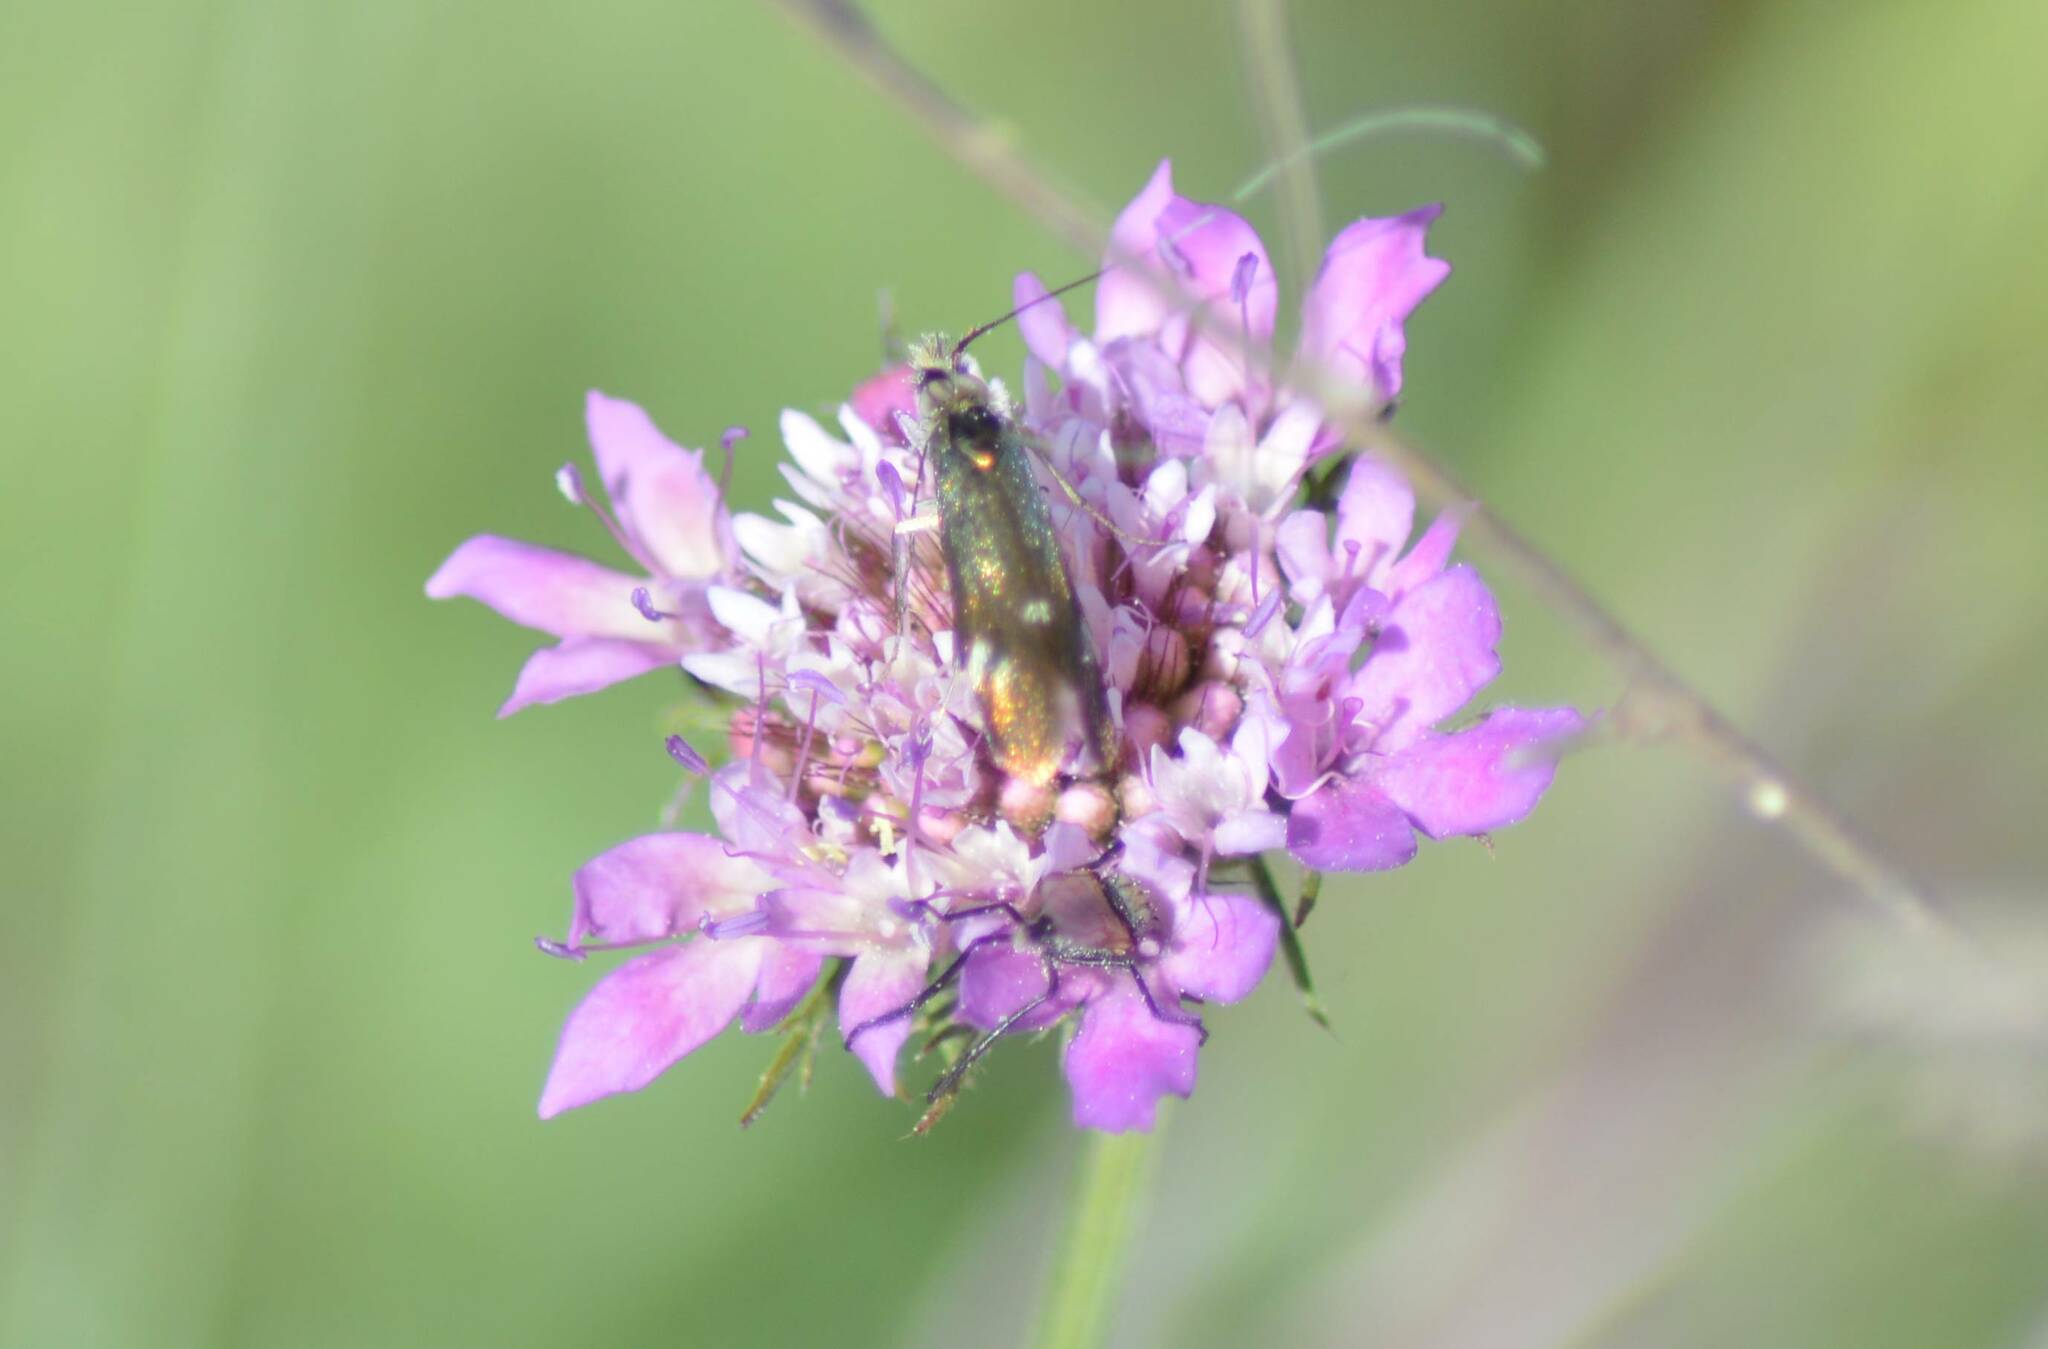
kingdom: Animalia
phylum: Arthropoda
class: Insecta
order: Lepidoptera
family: Adelidae
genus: Nemophora
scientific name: Nemophora raddaella
